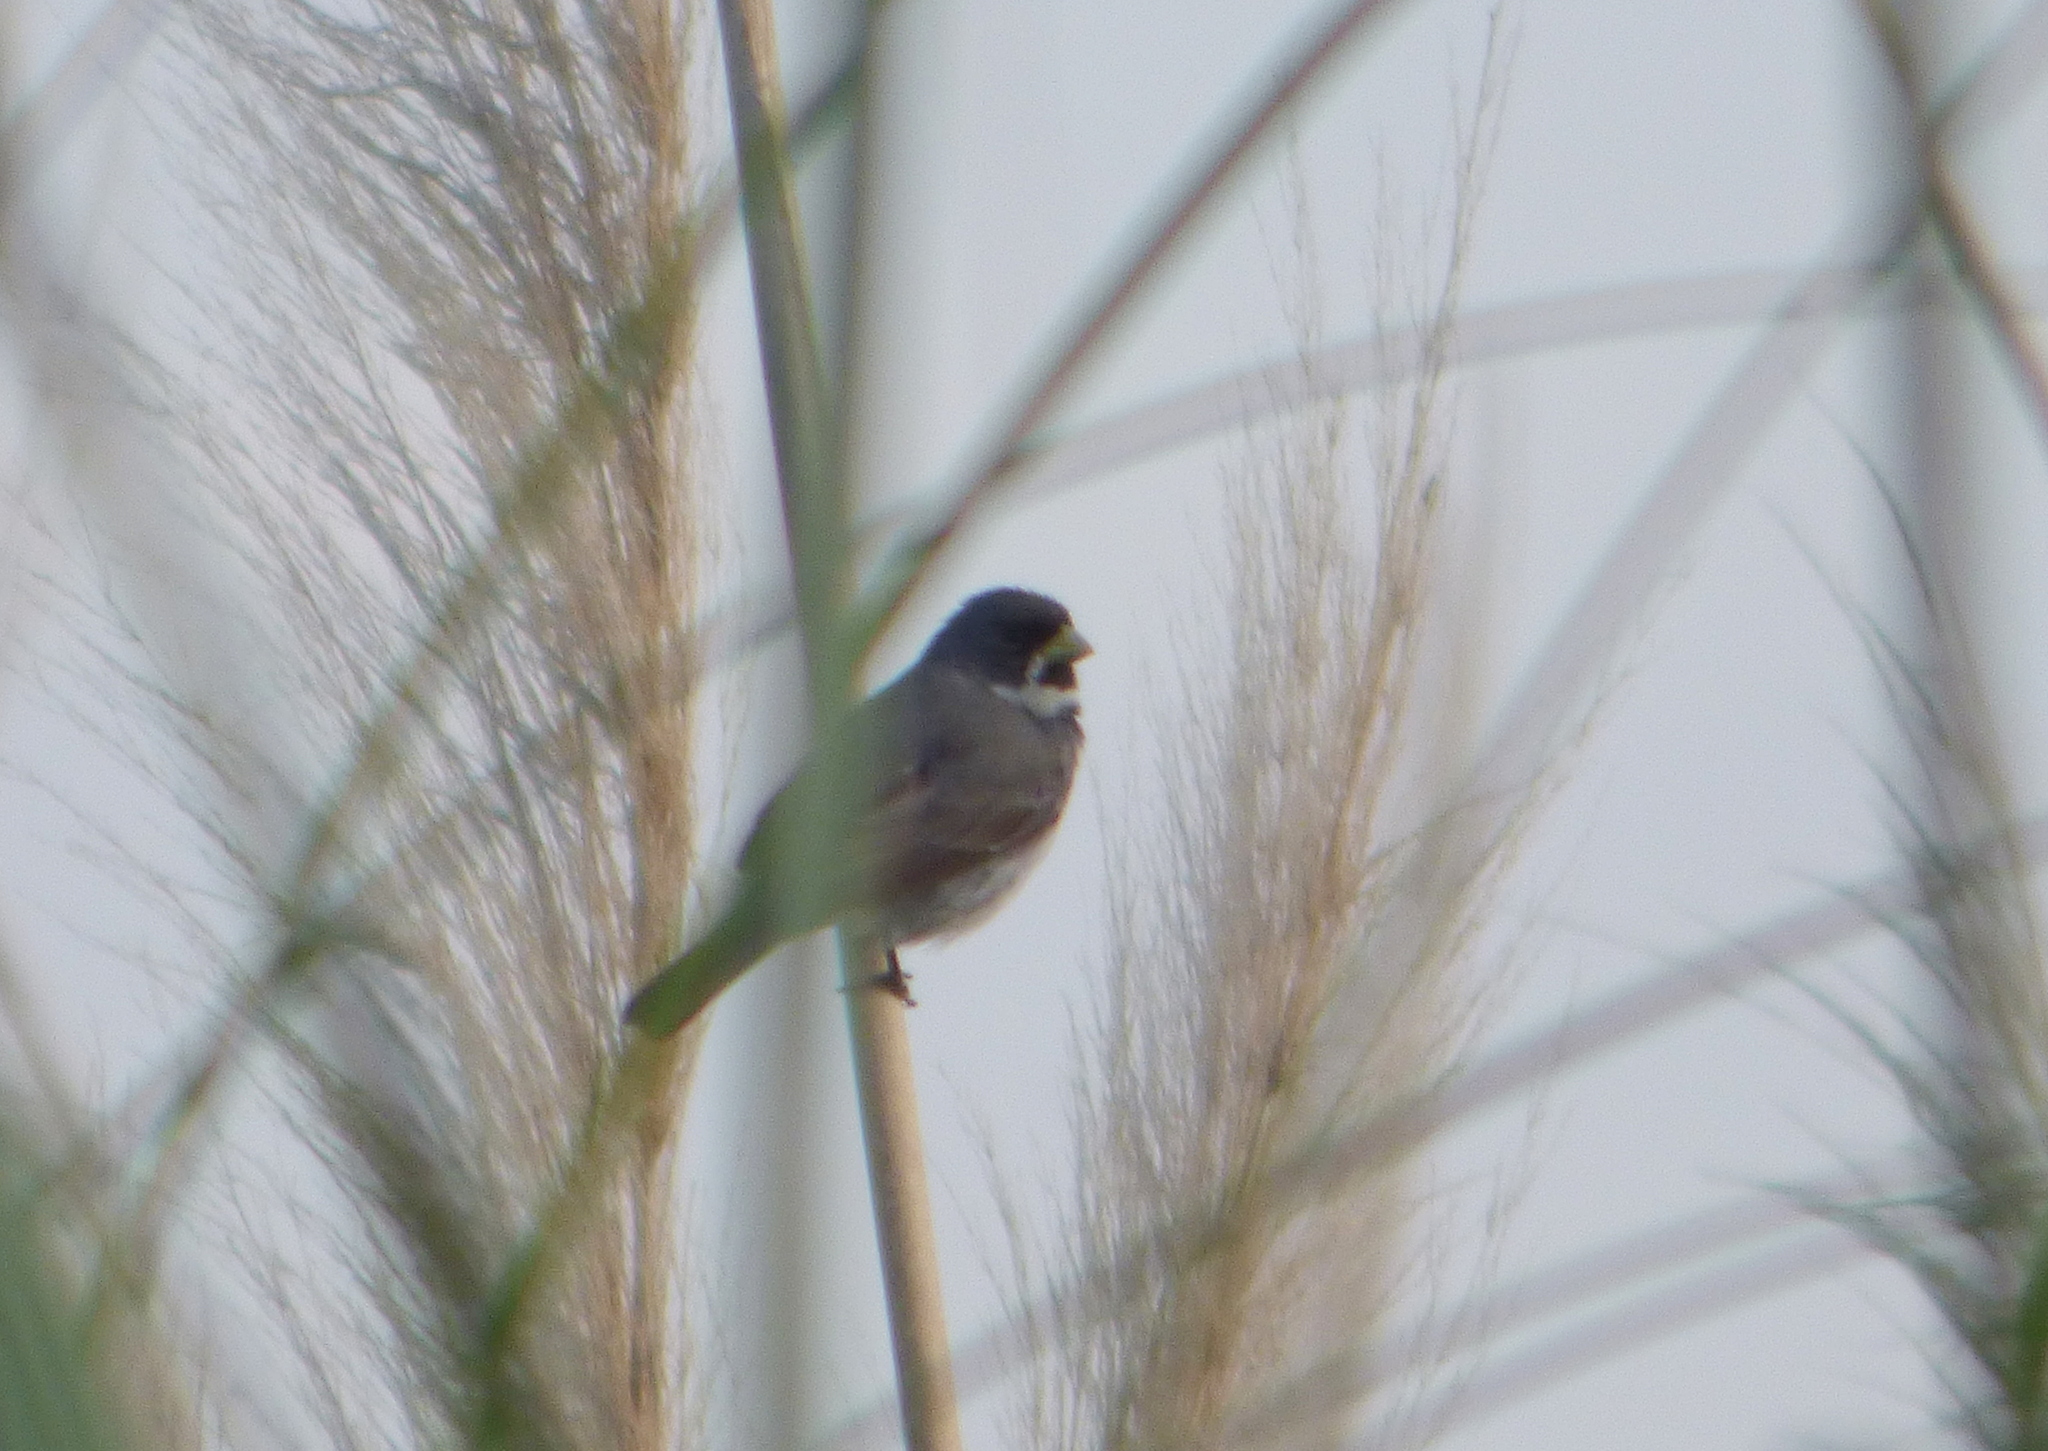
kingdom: Animalia
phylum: Chordata
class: Aves
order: Passeriformes
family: Thraupidae
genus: Sporophila
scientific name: Sporophila caerulescens
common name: Double-collared seedeater
